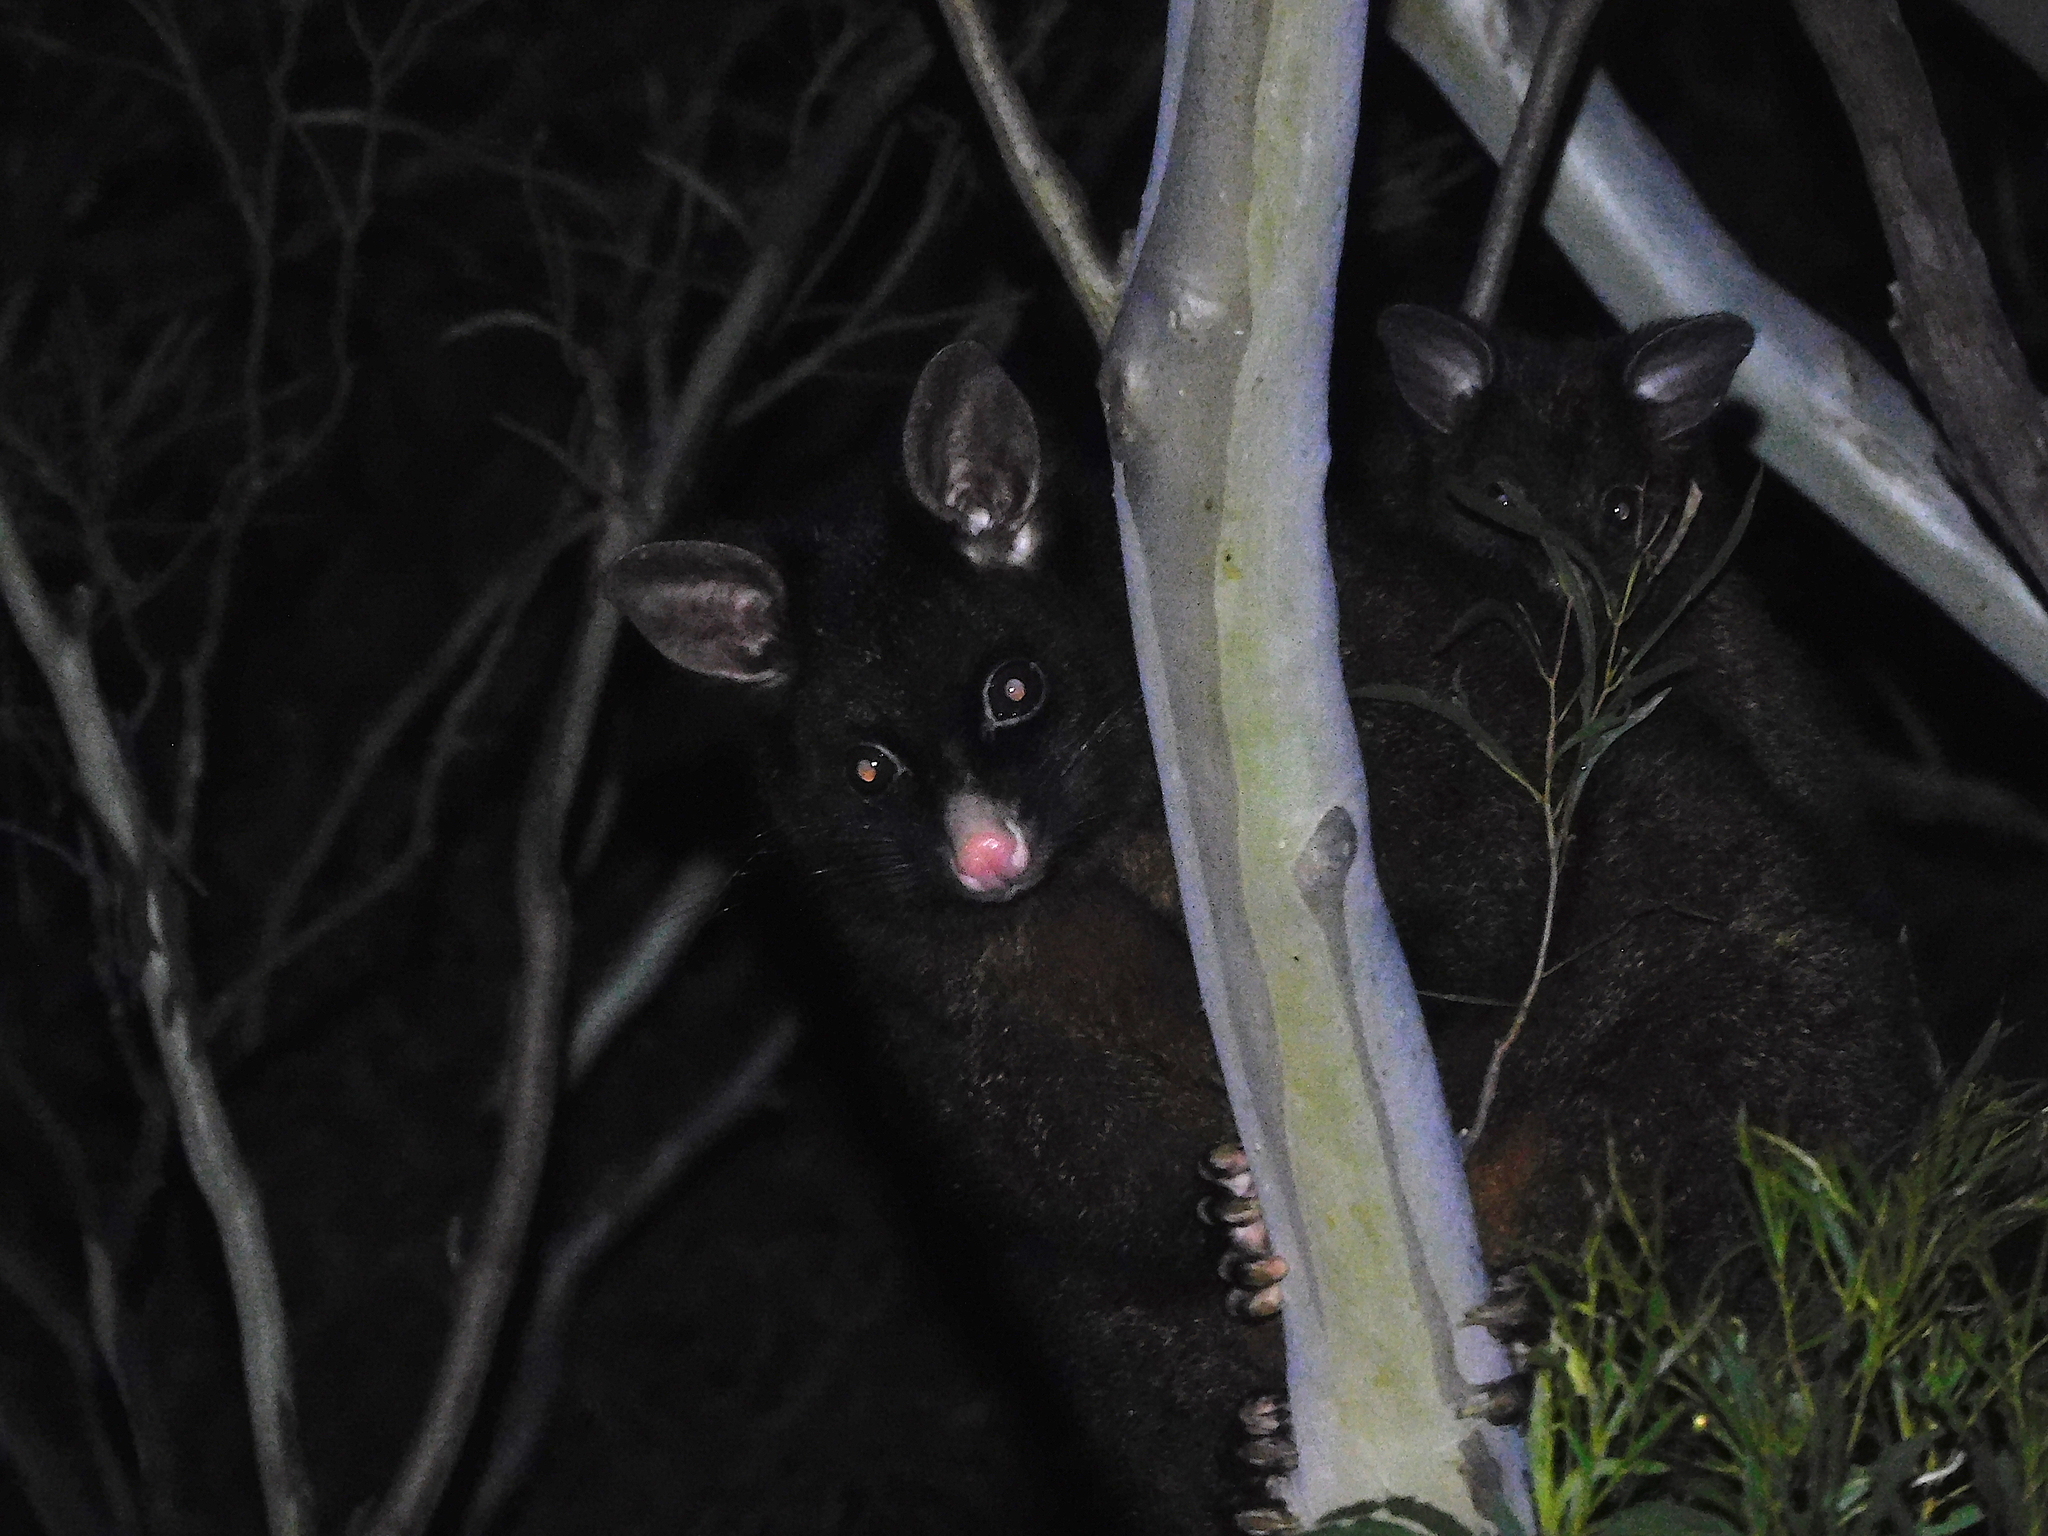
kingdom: Animalia
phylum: Chordata
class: Mammalia
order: Diprotodontia
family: Phalangeridae
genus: Trichosurus
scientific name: Trichosurus vulpecula
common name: Common brushtail
